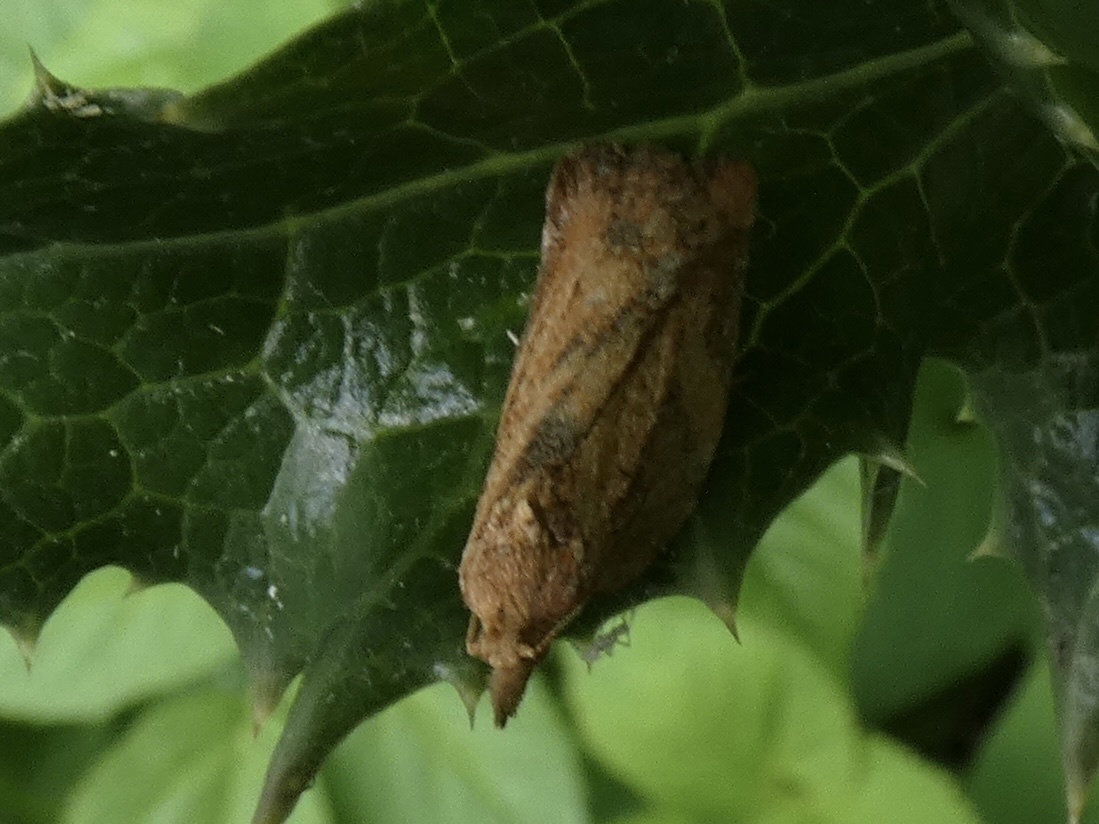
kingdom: Animalia
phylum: Arthropoda
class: Insecta
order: Lepidoptera
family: Tortricidae
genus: Epiphyas
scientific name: Epiphyas postvittana
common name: Light brown apple moth
